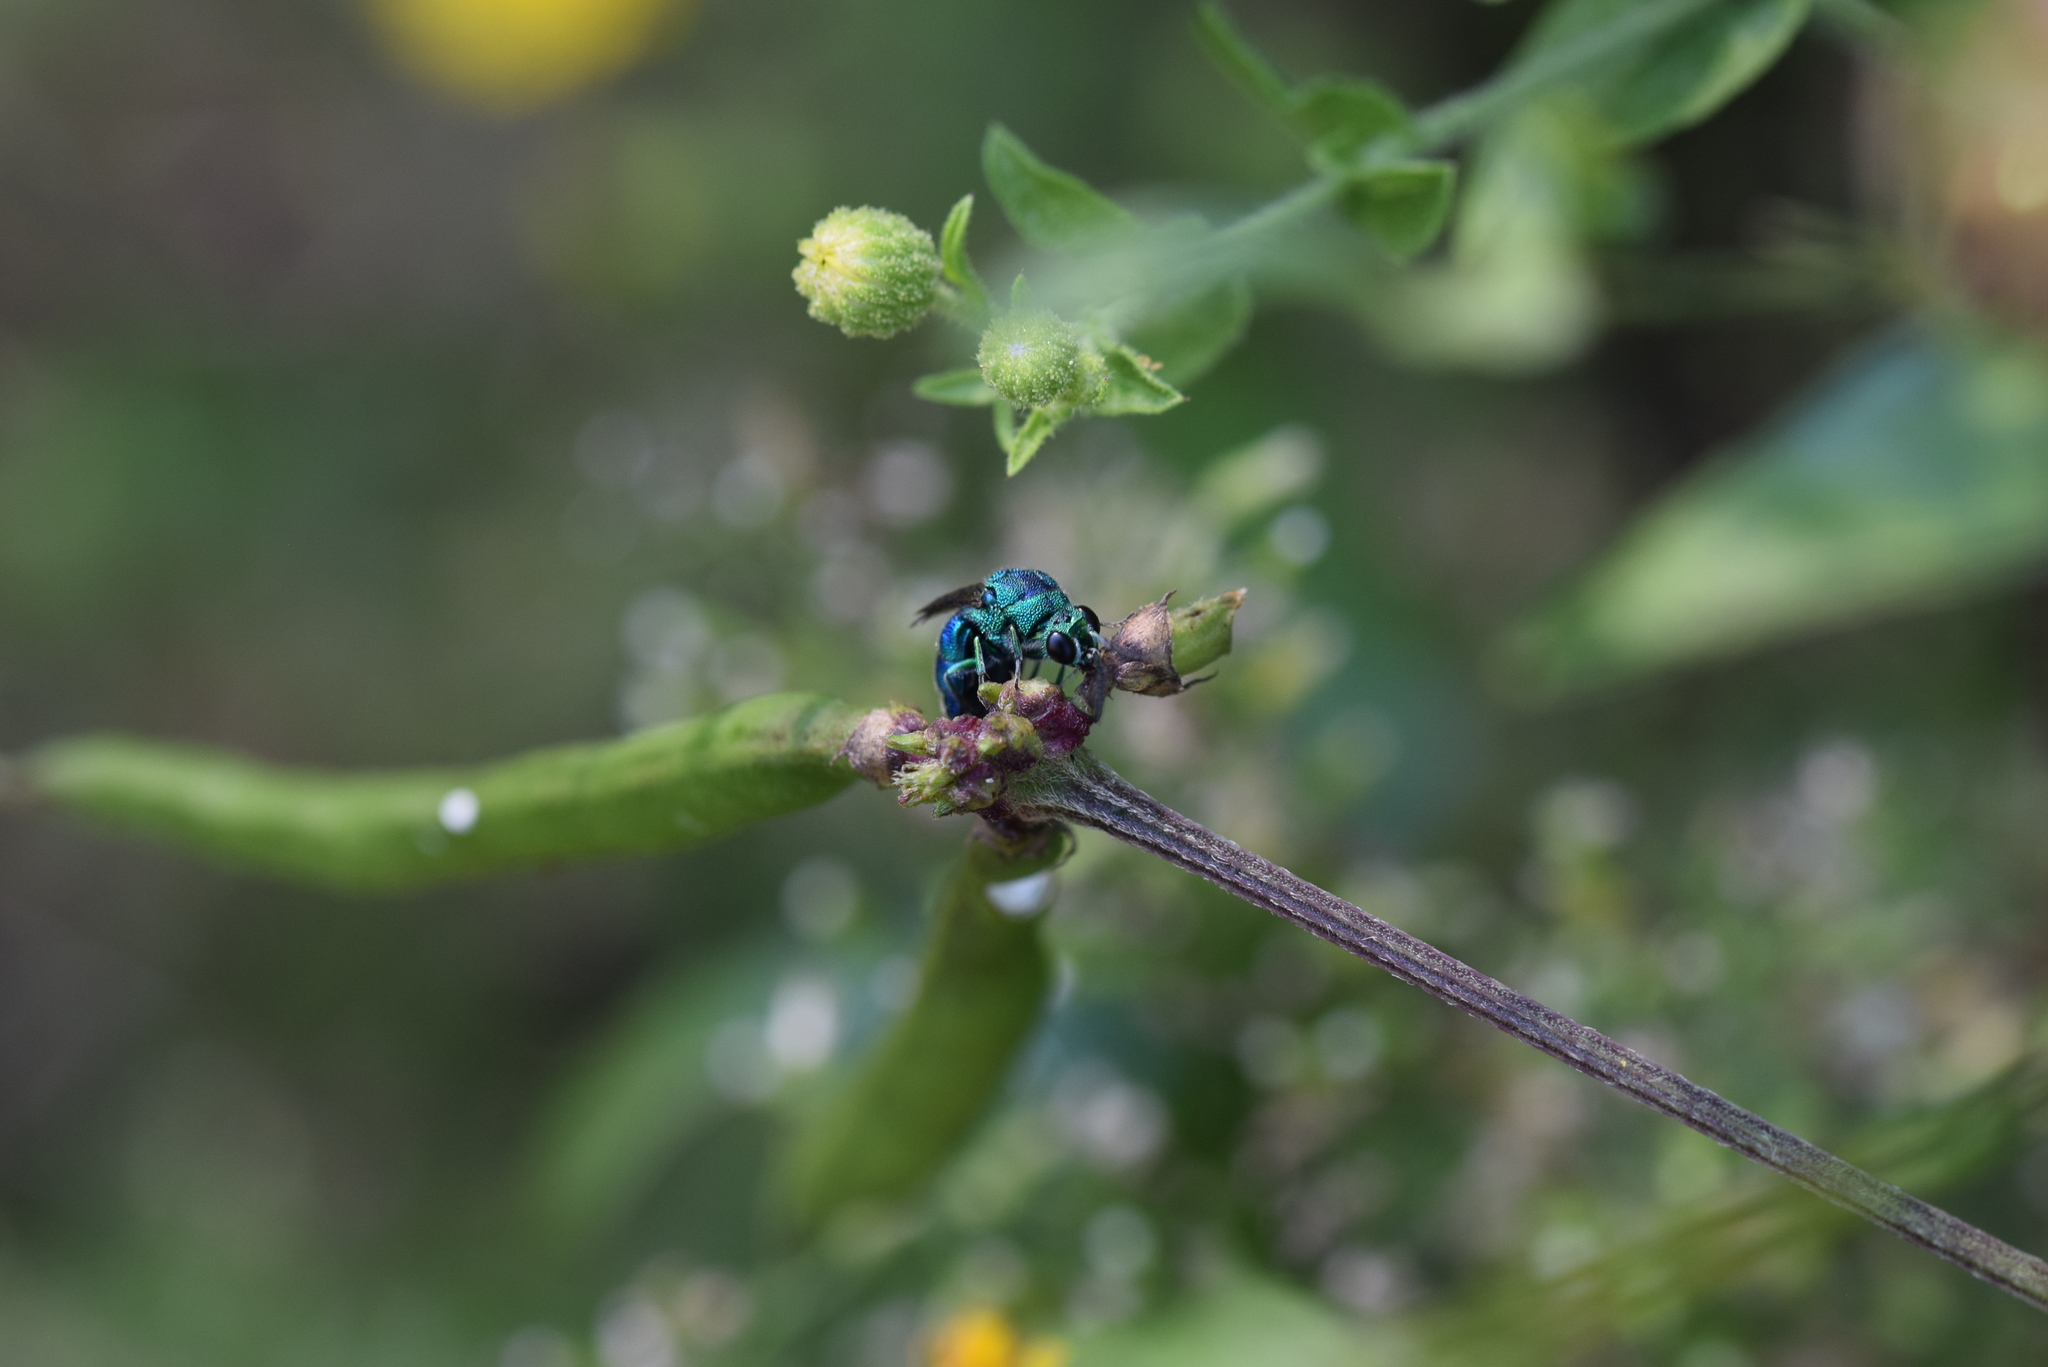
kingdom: Animalia
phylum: Arthropoda
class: Insecta
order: Hymenoptera
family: Chrysididae
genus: Chrysis
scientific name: Chrysis conica
